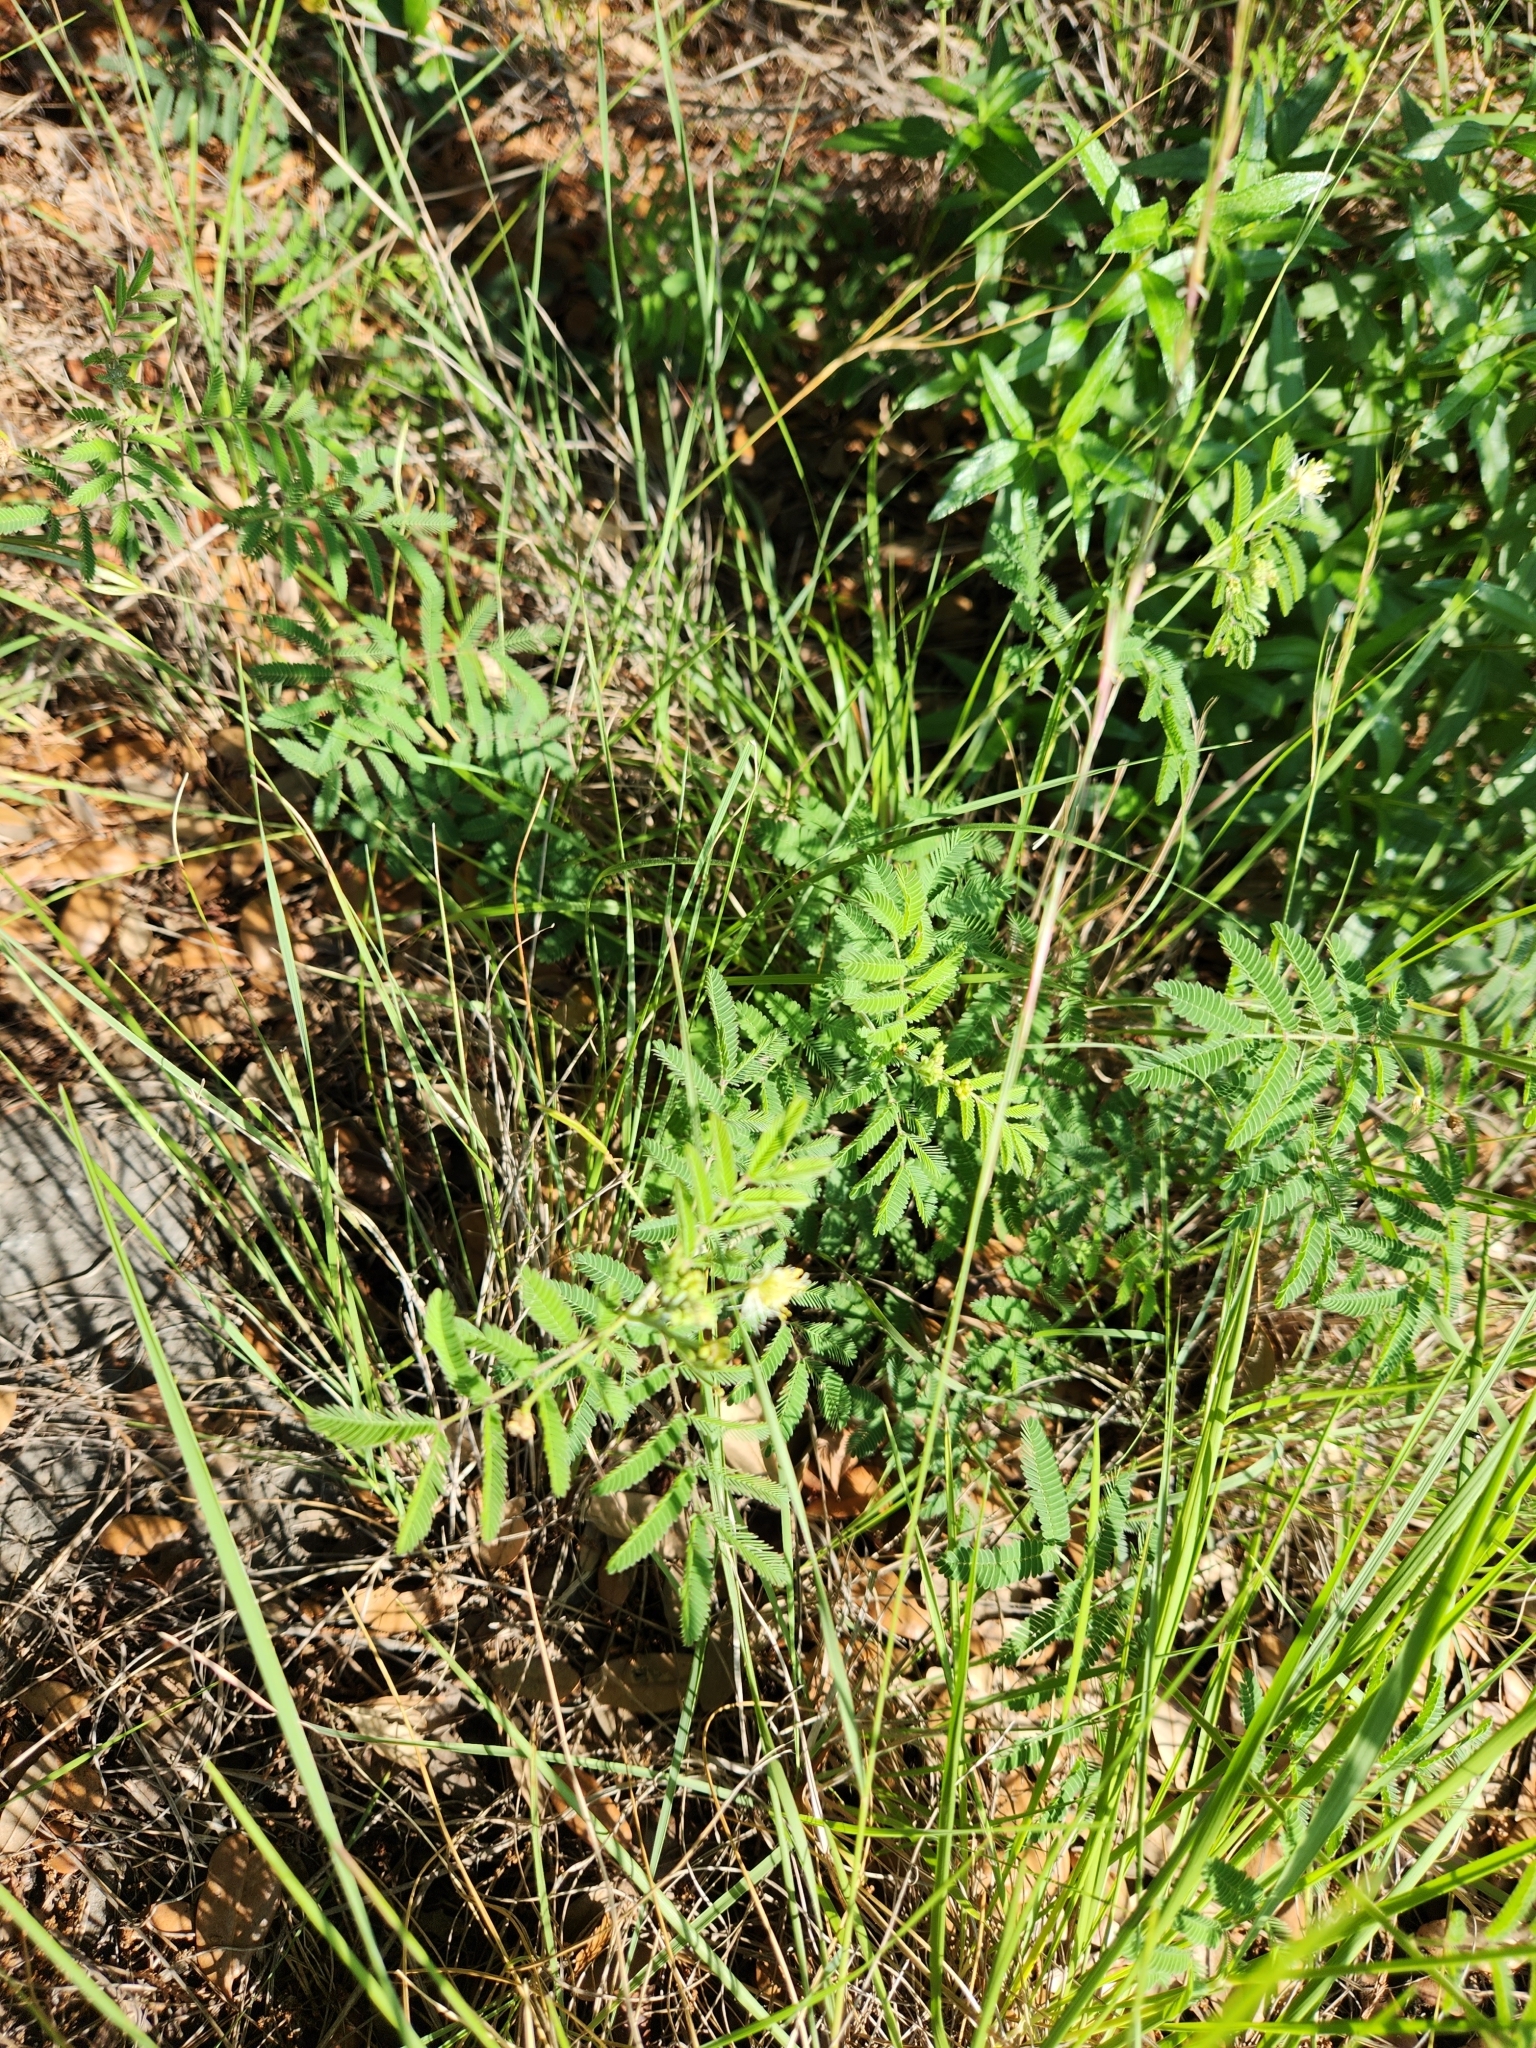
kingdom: Plantae
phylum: Tracheophyta
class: Magnoliopsida
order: Fabales
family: Fabaceae
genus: Desmanthus
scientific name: Desmanthus velutinus
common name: Velvet bundle-flower
